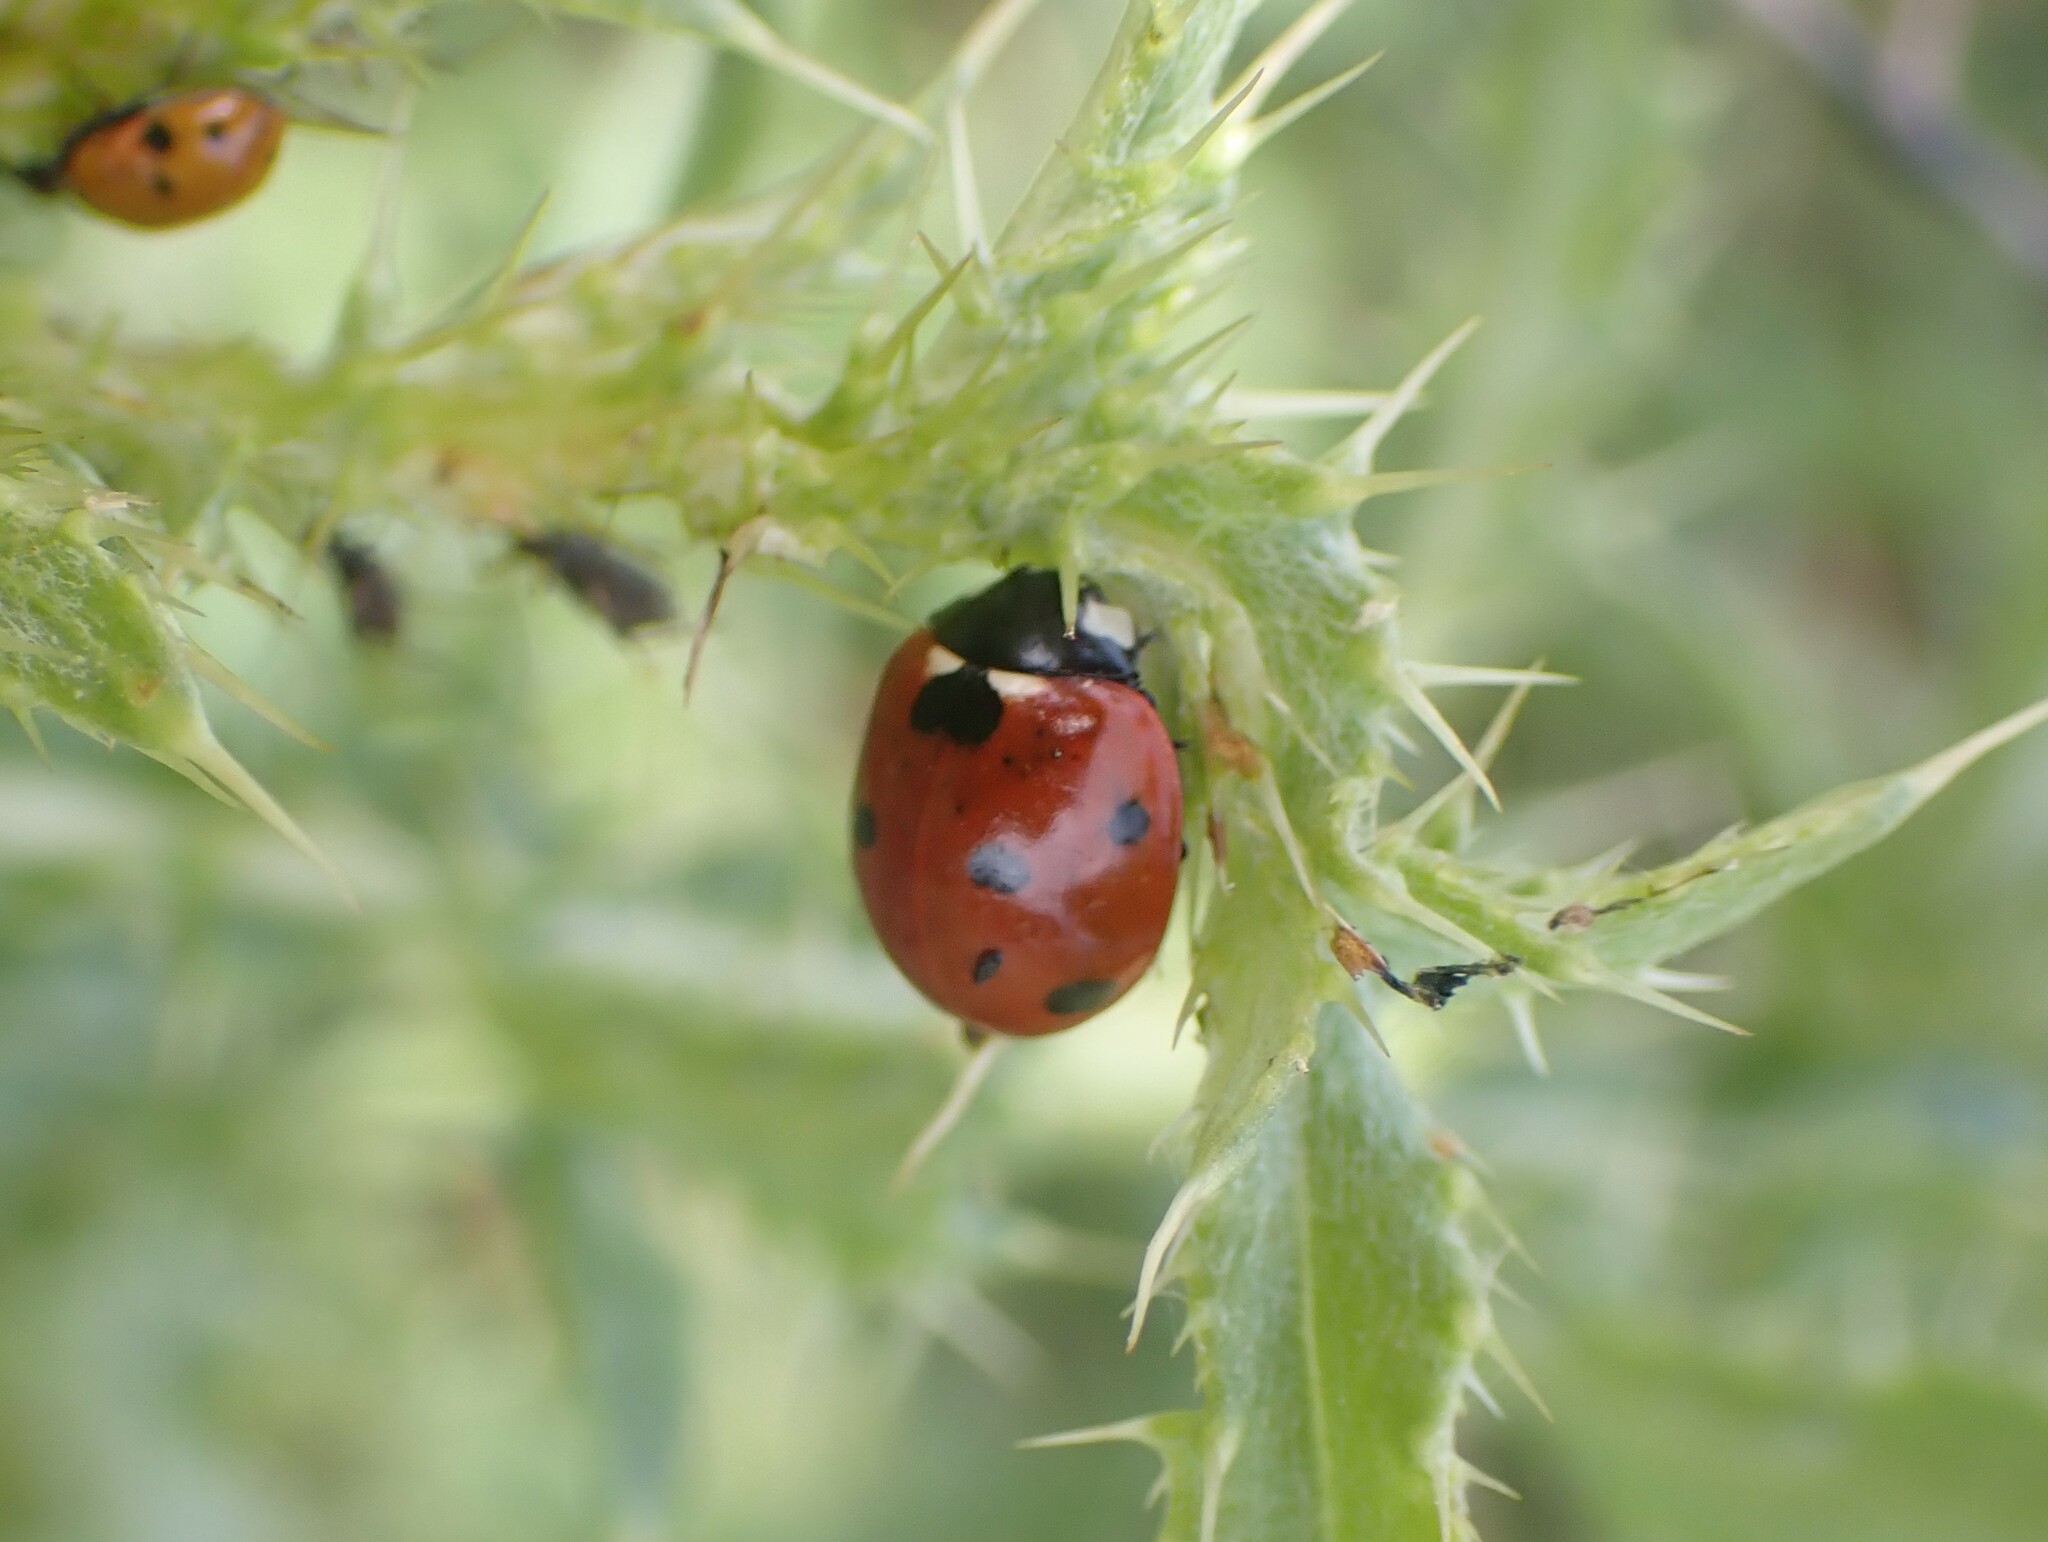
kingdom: Animalia
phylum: Arthropoda
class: Insecta
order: Coleoptera
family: Coccinellidae
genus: Coccinella
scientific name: Coccinella septempunctata
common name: Sevenspotted lady beetle
